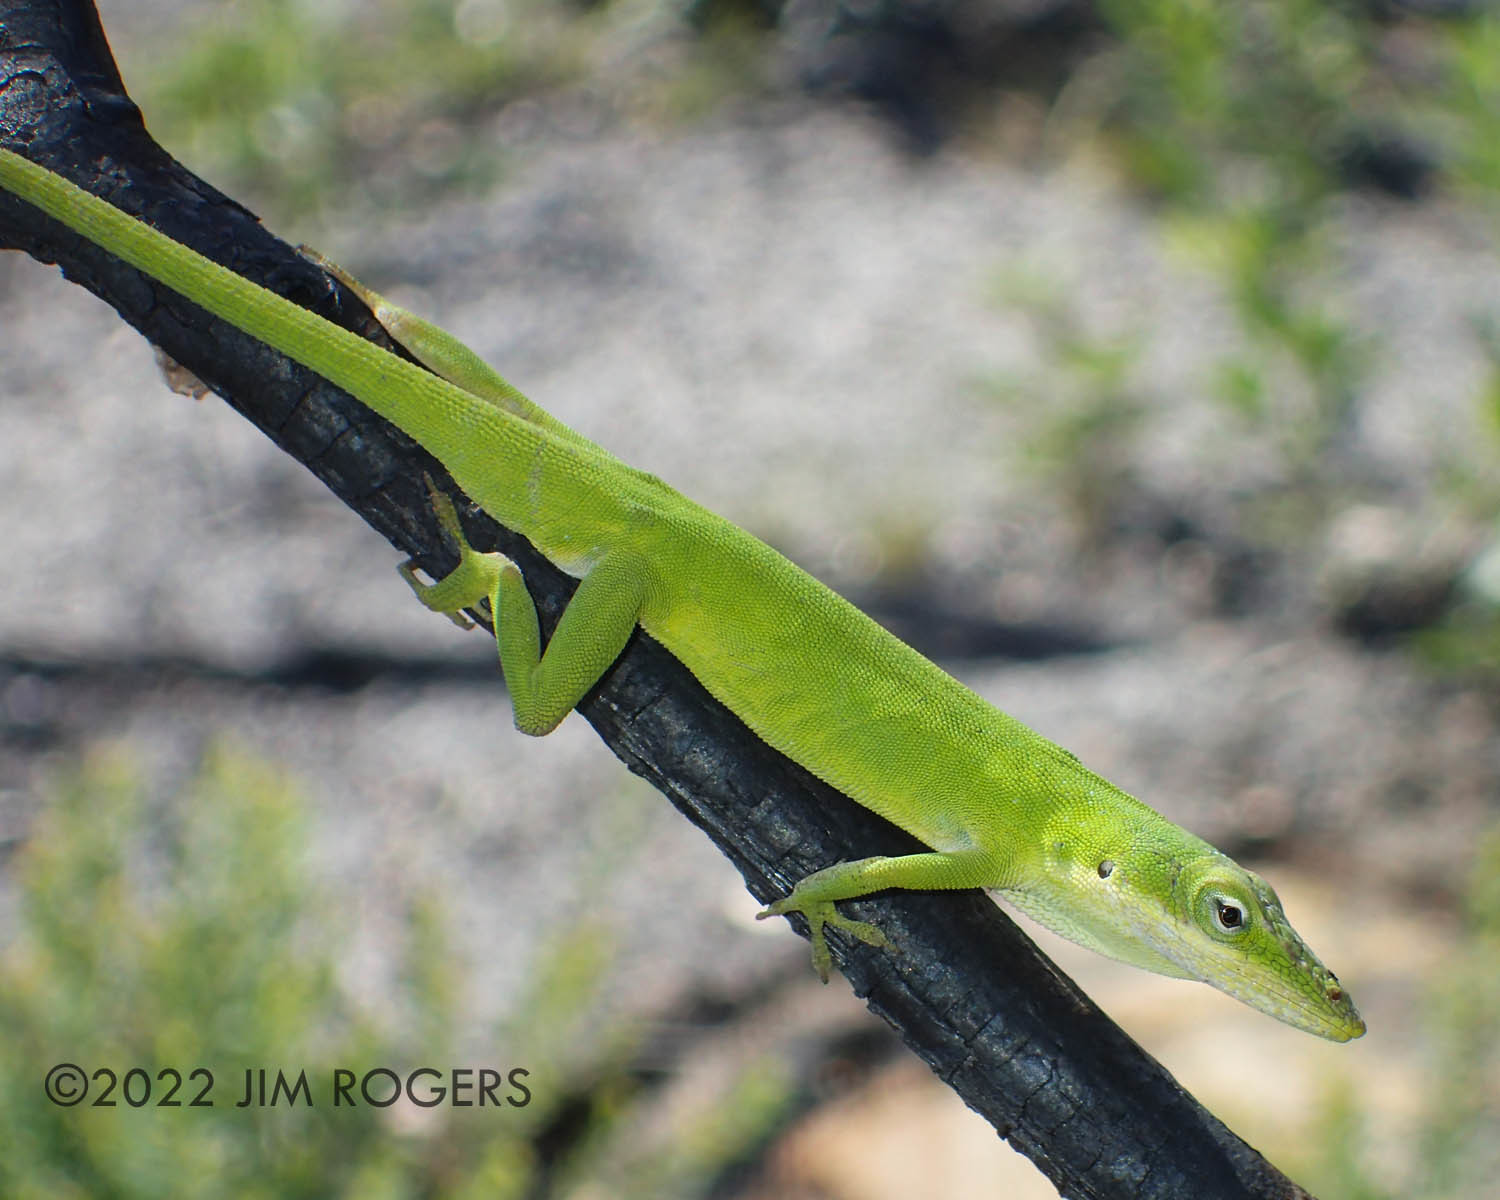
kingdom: Animalia
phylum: Chordata
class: Squamata
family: Dactyloidae
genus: Anolis
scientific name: Anolis carolinensis
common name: Green anole
